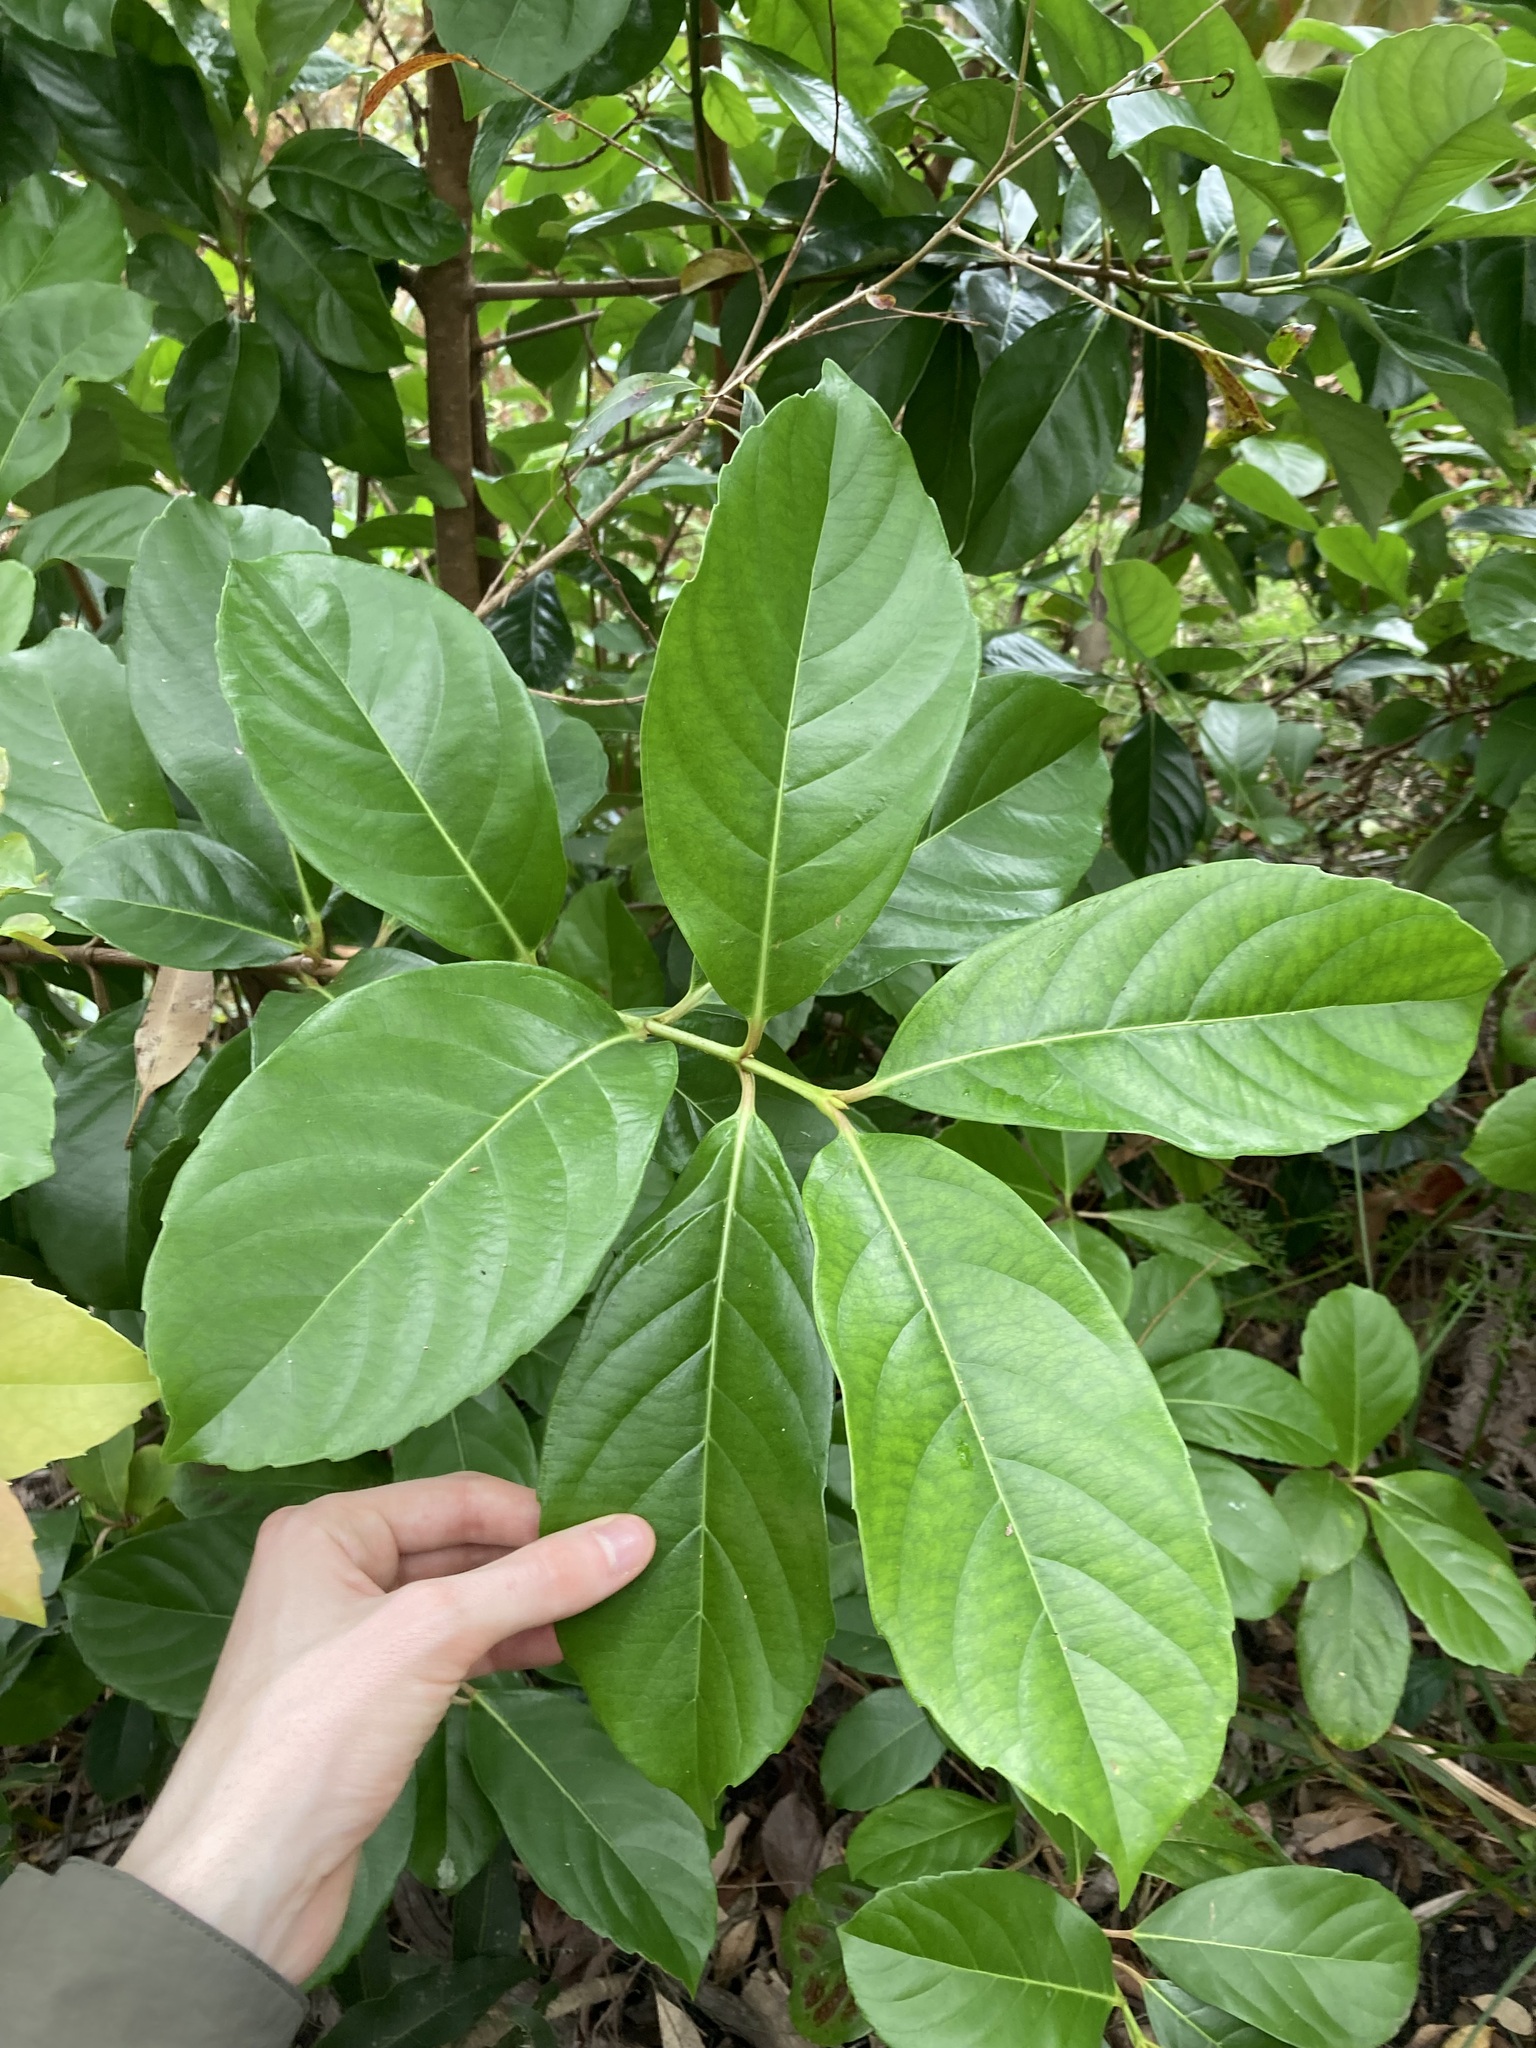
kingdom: Plantae
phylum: Tracheophyta
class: Magnoliopsida
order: Dipsacales
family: Viburnaceae
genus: Viburnum
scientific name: Viburnum odoratissimum
